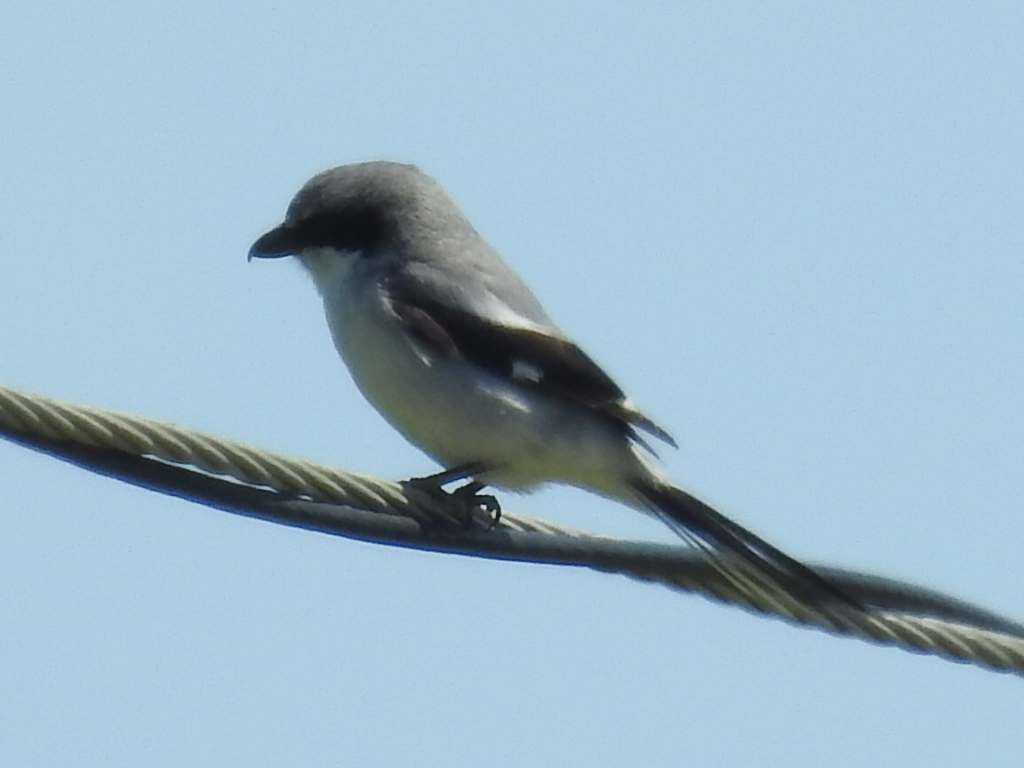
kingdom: Animalia
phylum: Chordata
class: Aves
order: Passeriformes
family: Laniidae
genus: Lanius
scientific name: Lanius ludovicianus
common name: Loggerhead shrike
